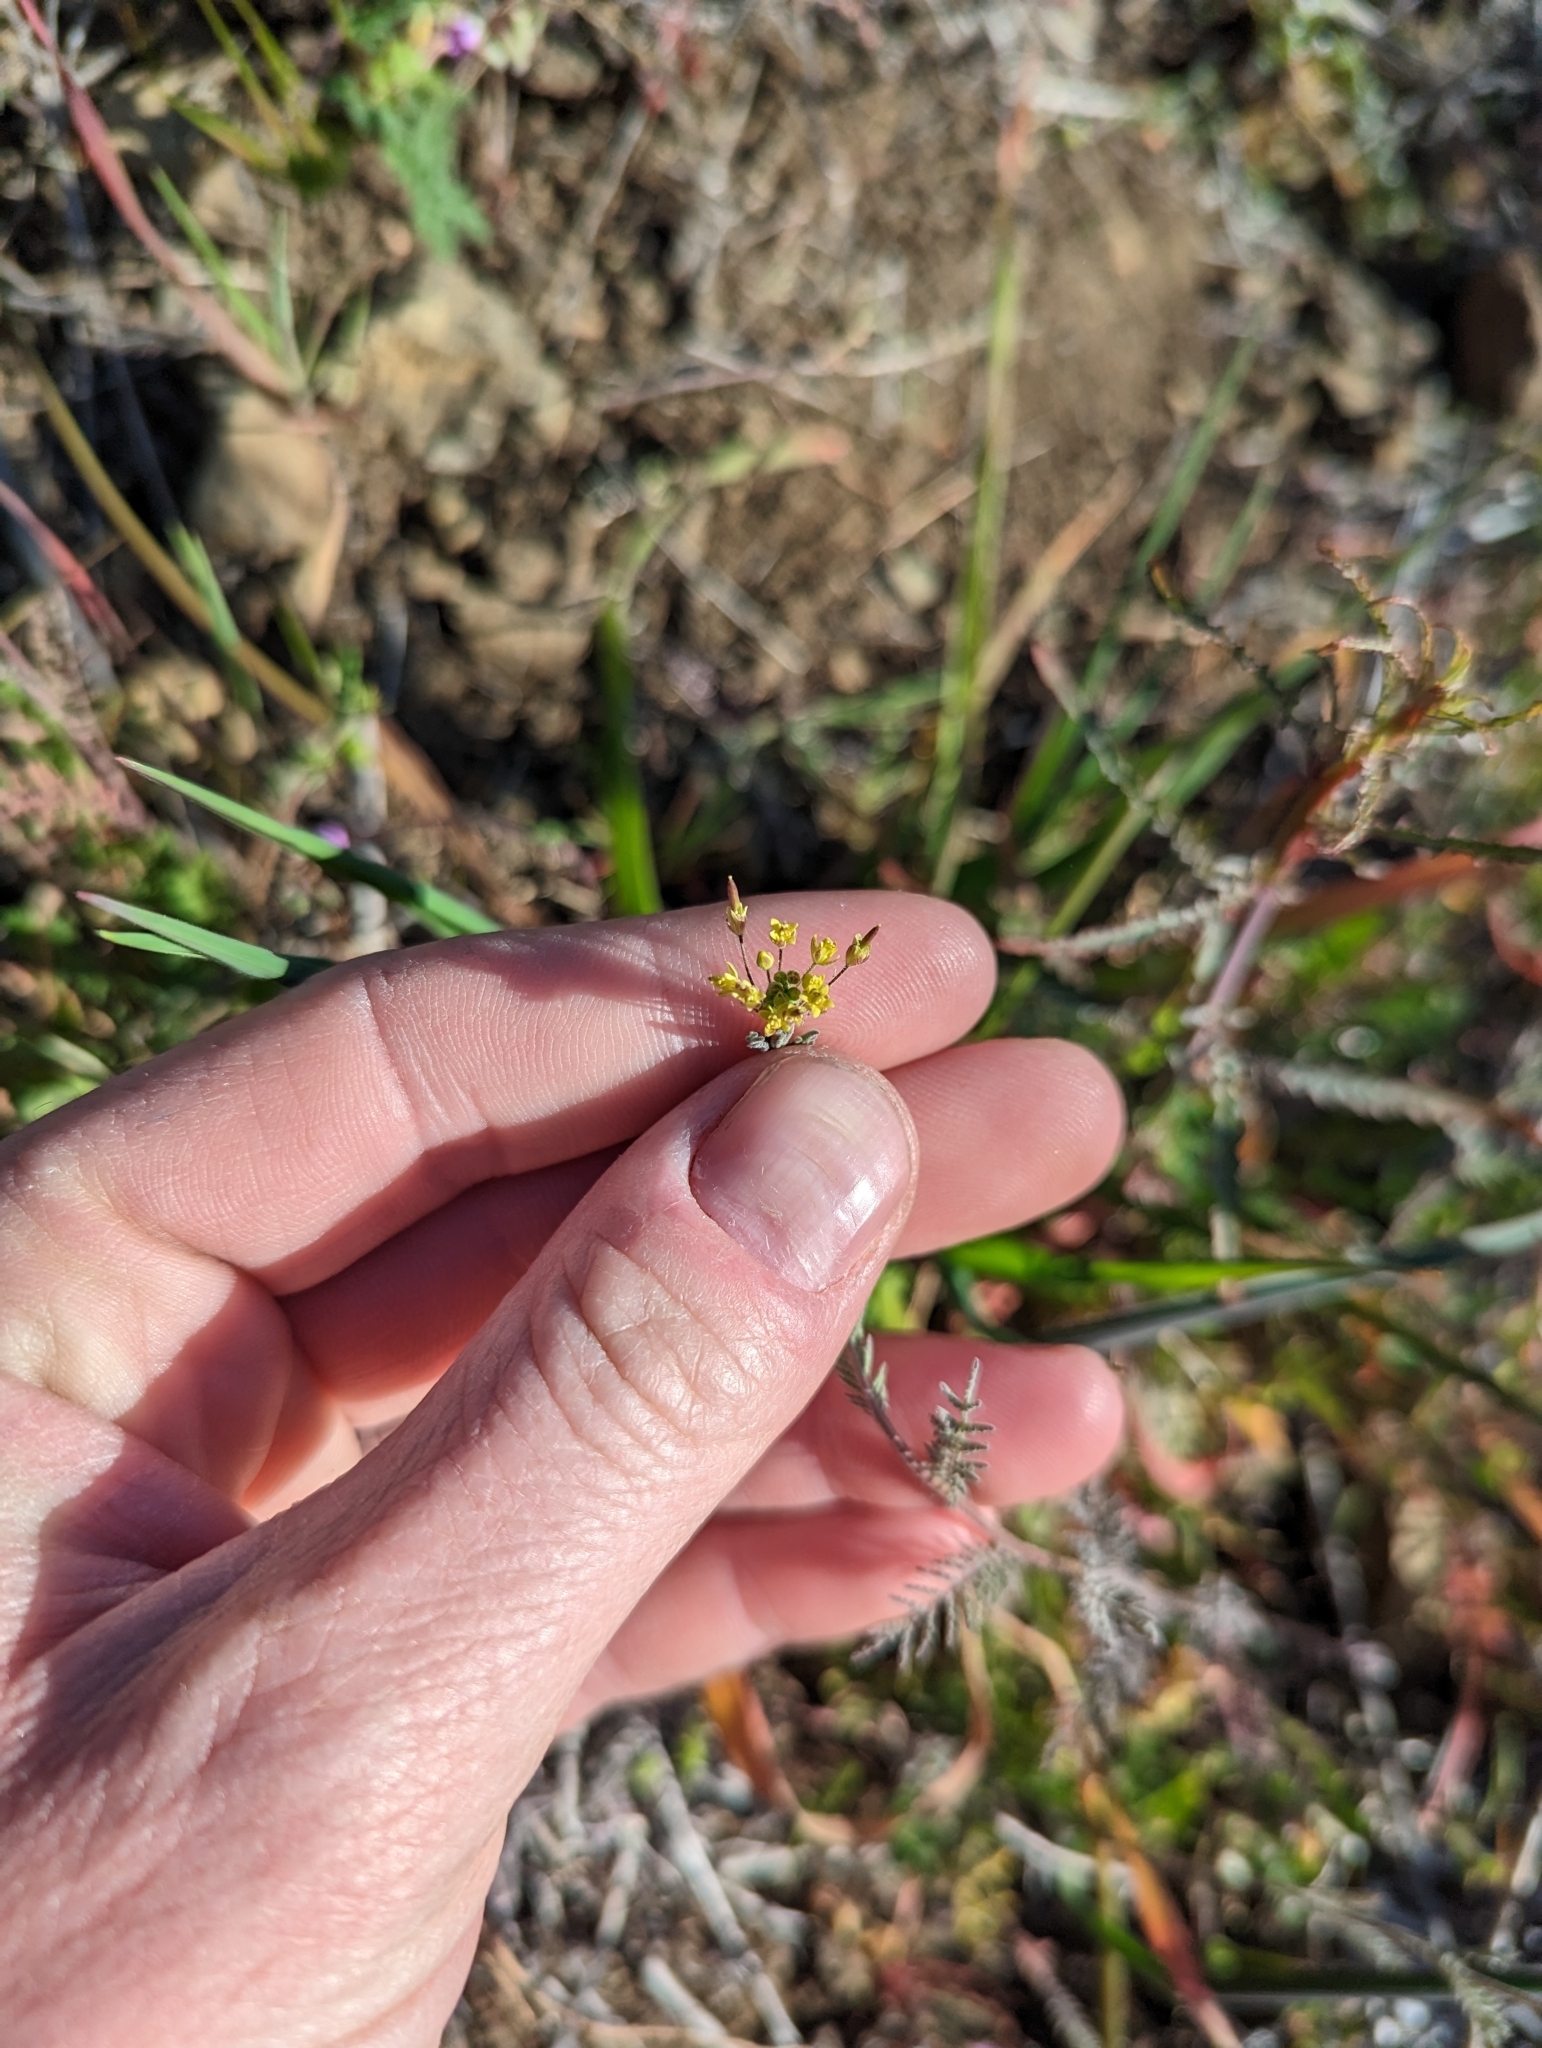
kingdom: Plantae
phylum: Tracheophyta
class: Magnoliopsida
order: Brassicales
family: Brassicaceae
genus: Descurainia
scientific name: Descurainia pinnata
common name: Western tansy mustard
